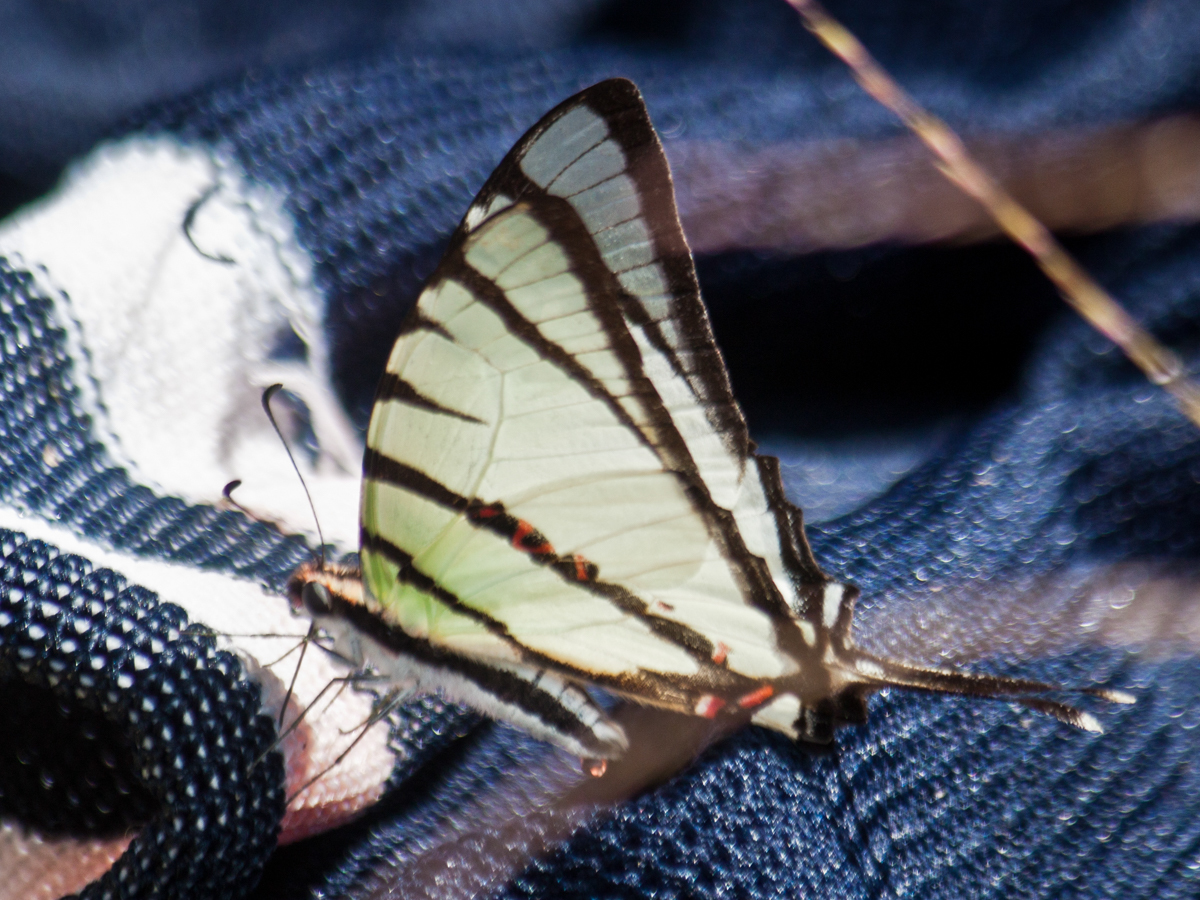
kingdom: Animalia
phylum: Arthropoda
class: Insecta
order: Lepidoptera
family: Papilionidae
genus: Graphium
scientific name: Graphium agetes
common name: Fourbar swordtail
